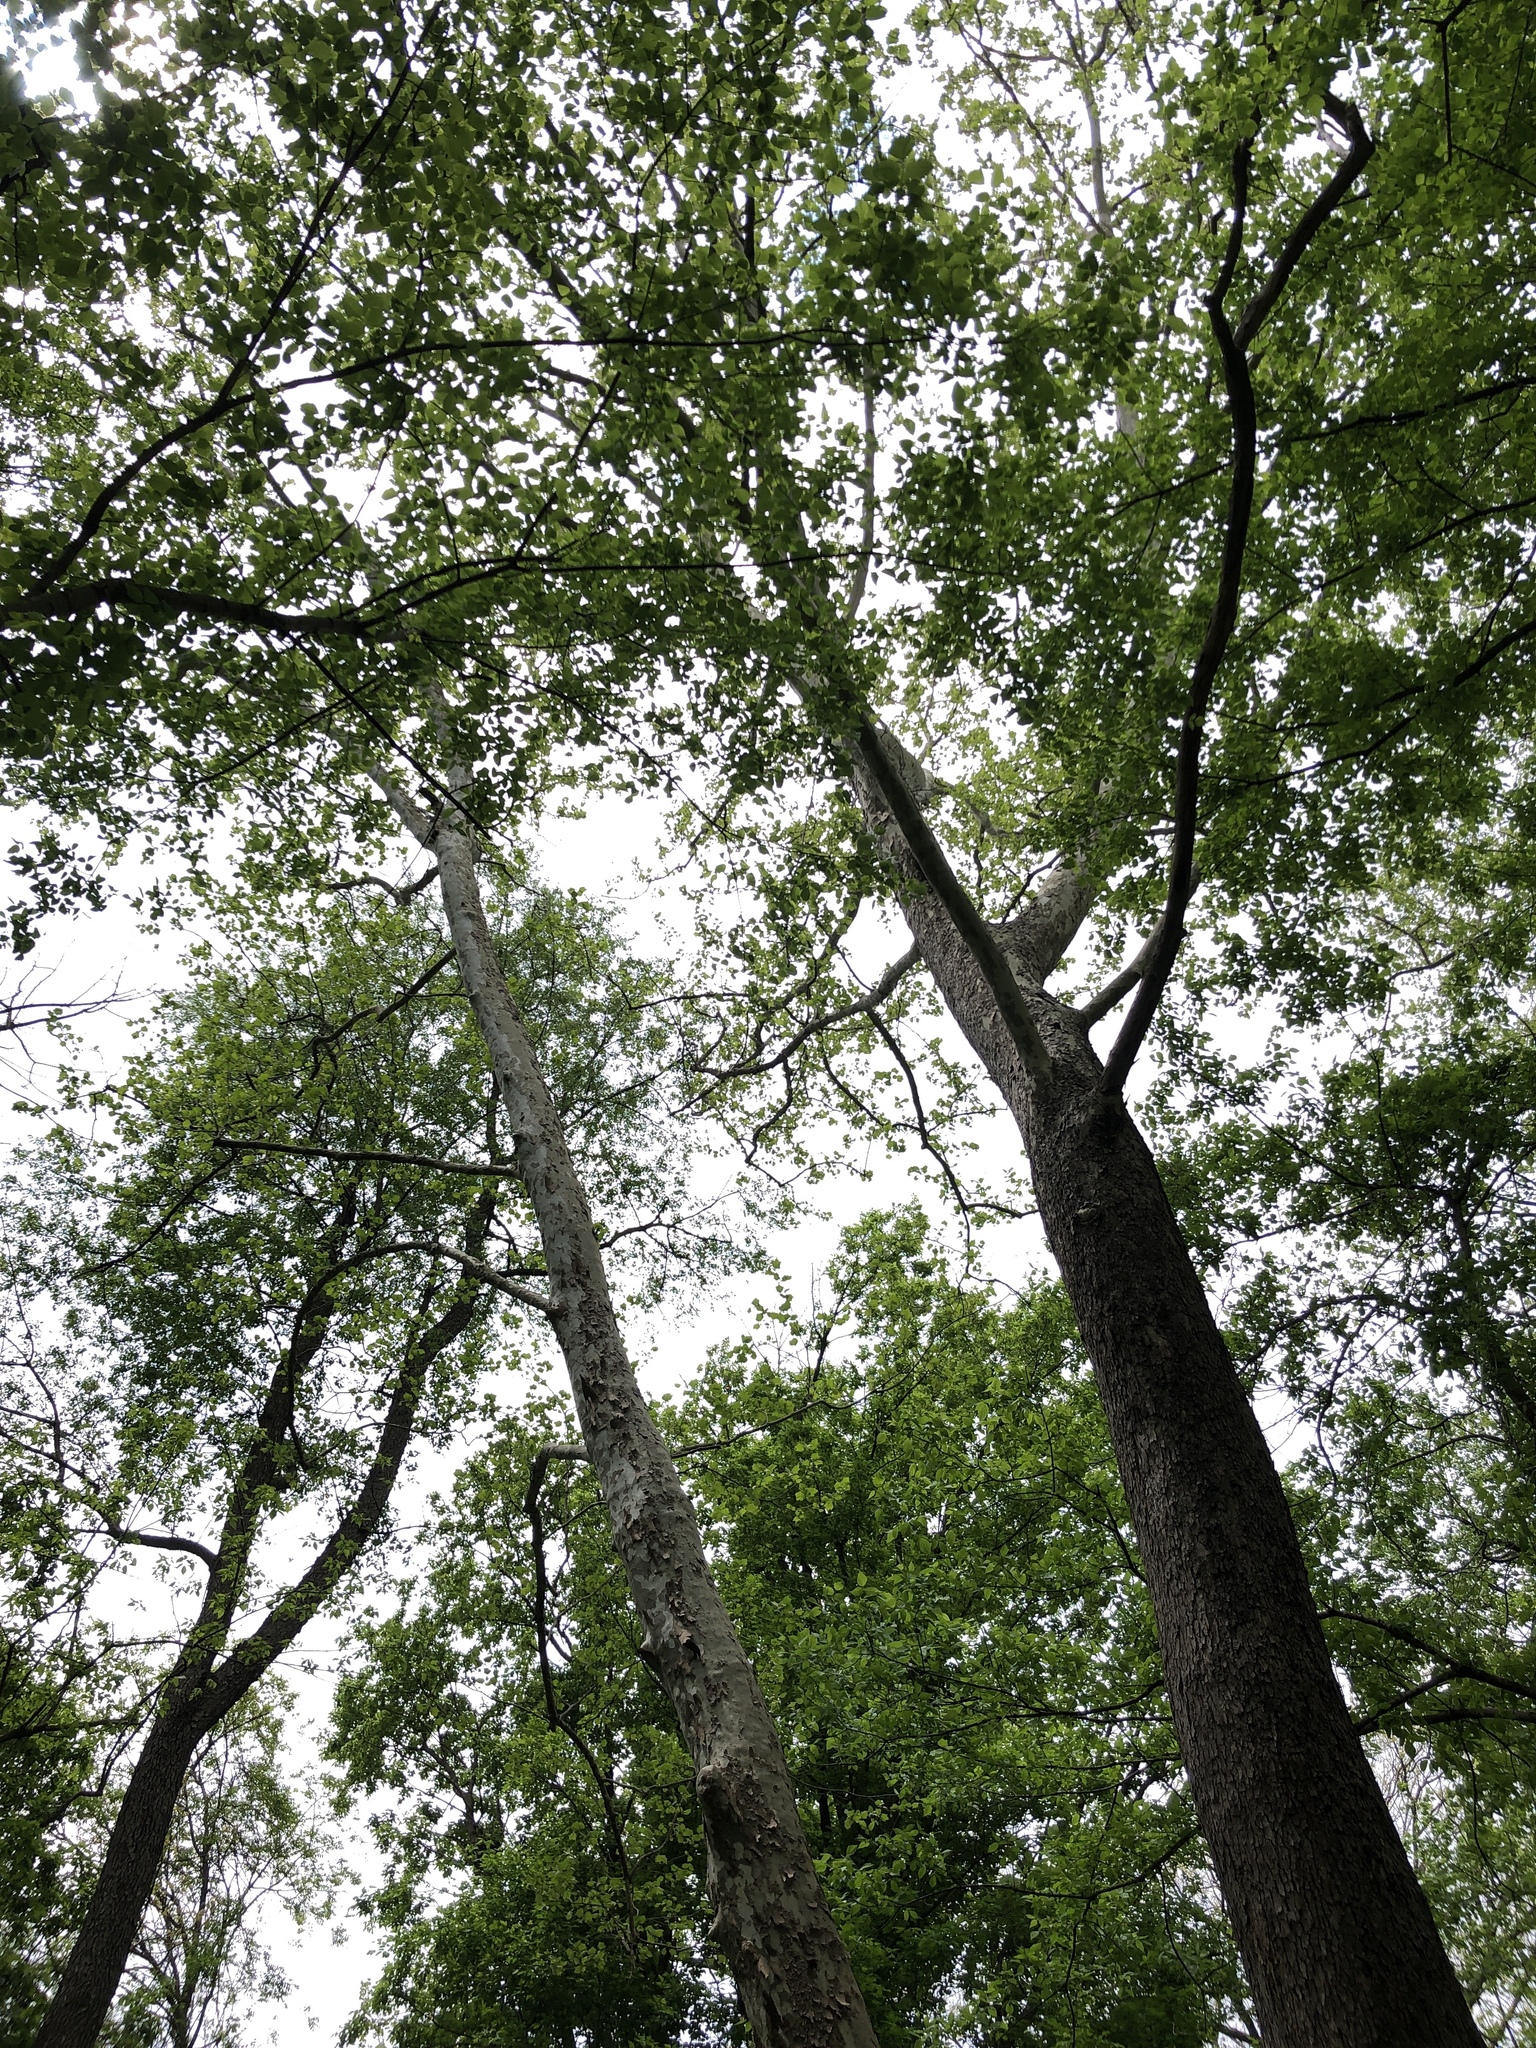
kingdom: Plantae
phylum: Tracheophyta
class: Magnoliopsida
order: Proteales
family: Platanaceae
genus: Platanus
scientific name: Platanus occidentalis
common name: American sycamore
